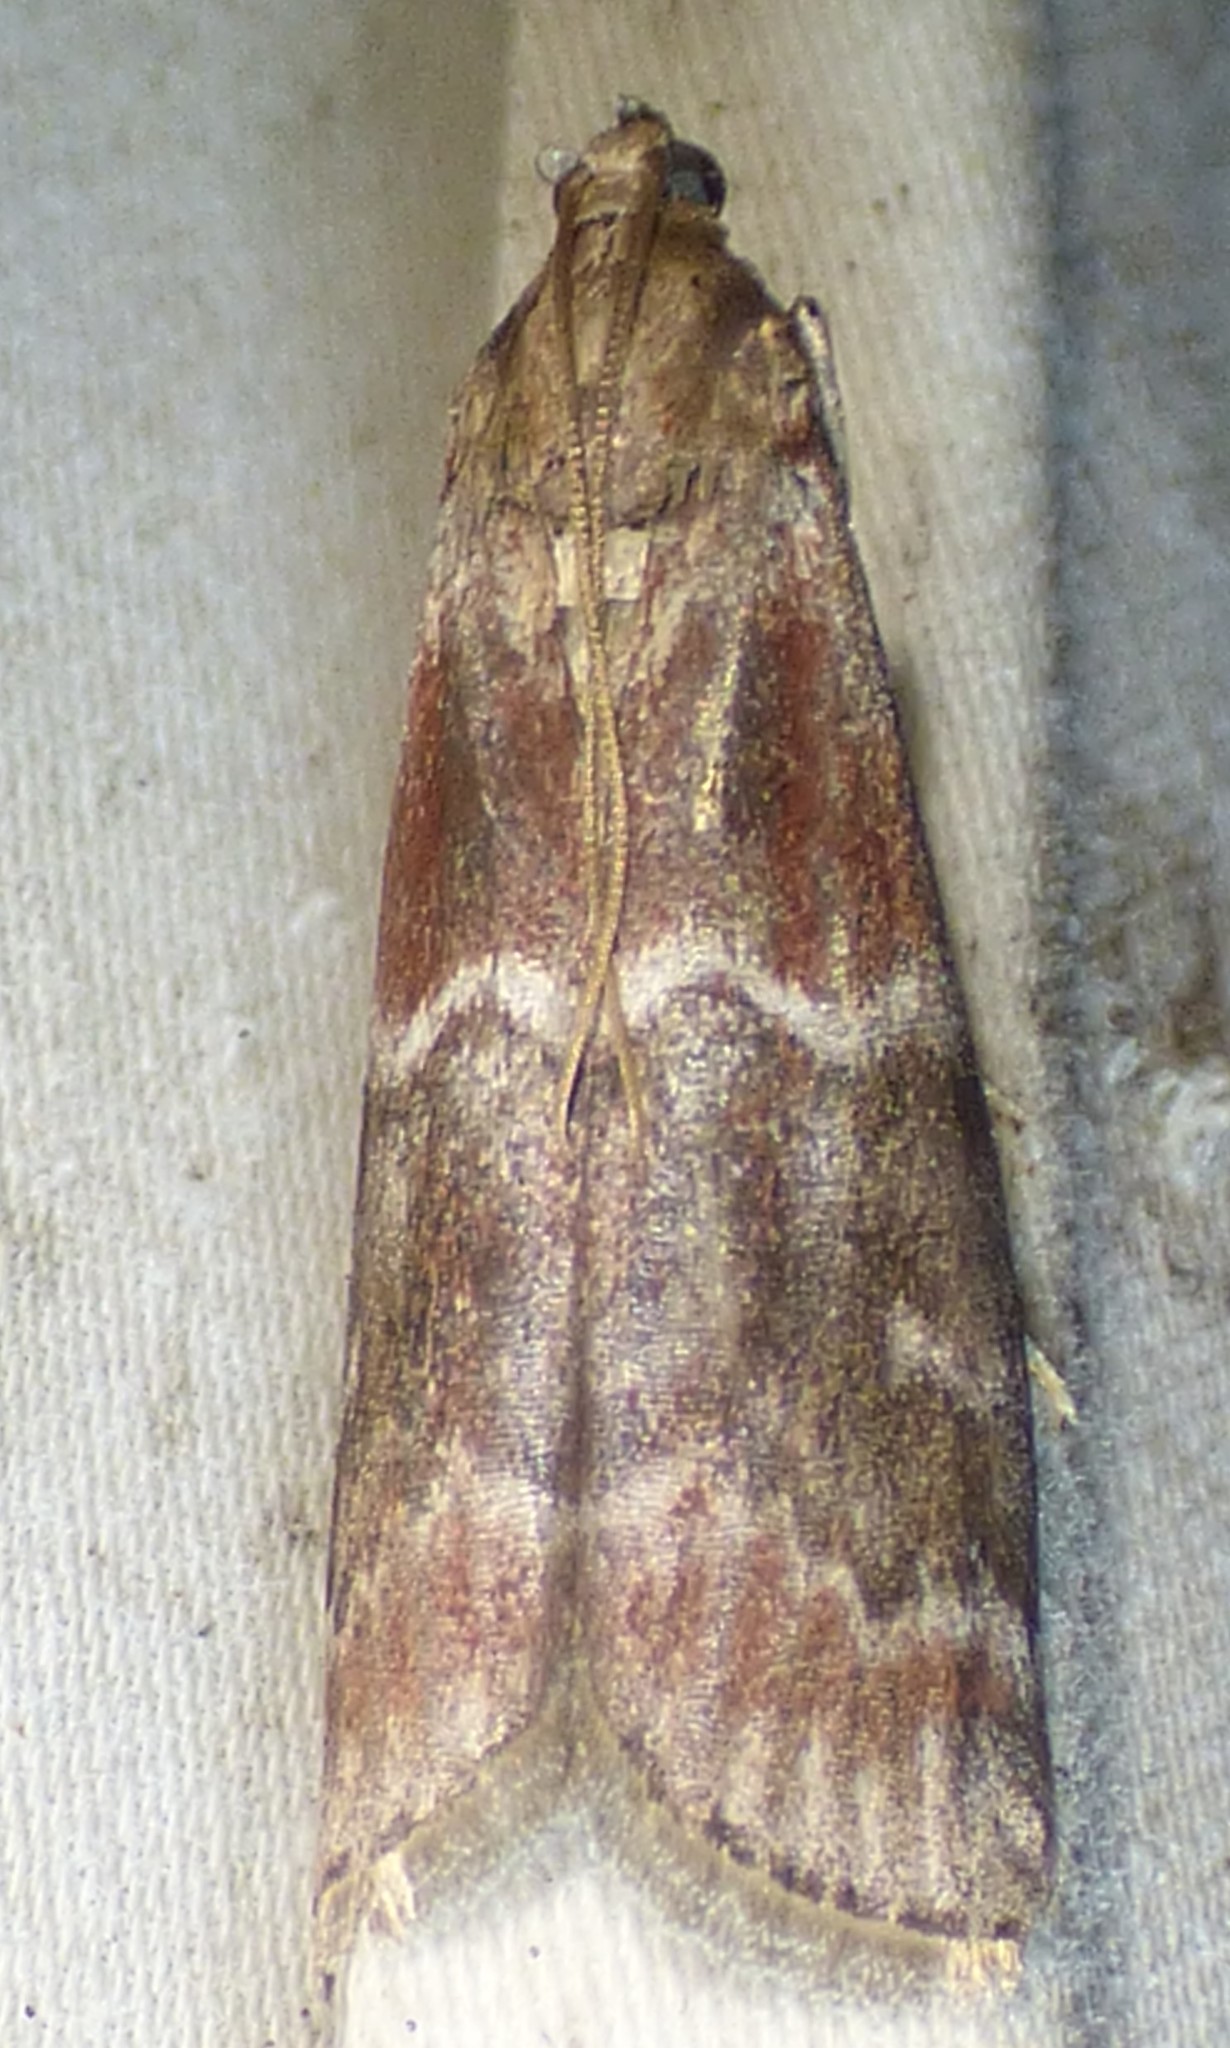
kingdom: Animalia
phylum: Arthropoda
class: Insecta
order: Lepidoptera
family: Pyralidae
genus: Euzophera
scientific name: Euzophera ostricolorella
